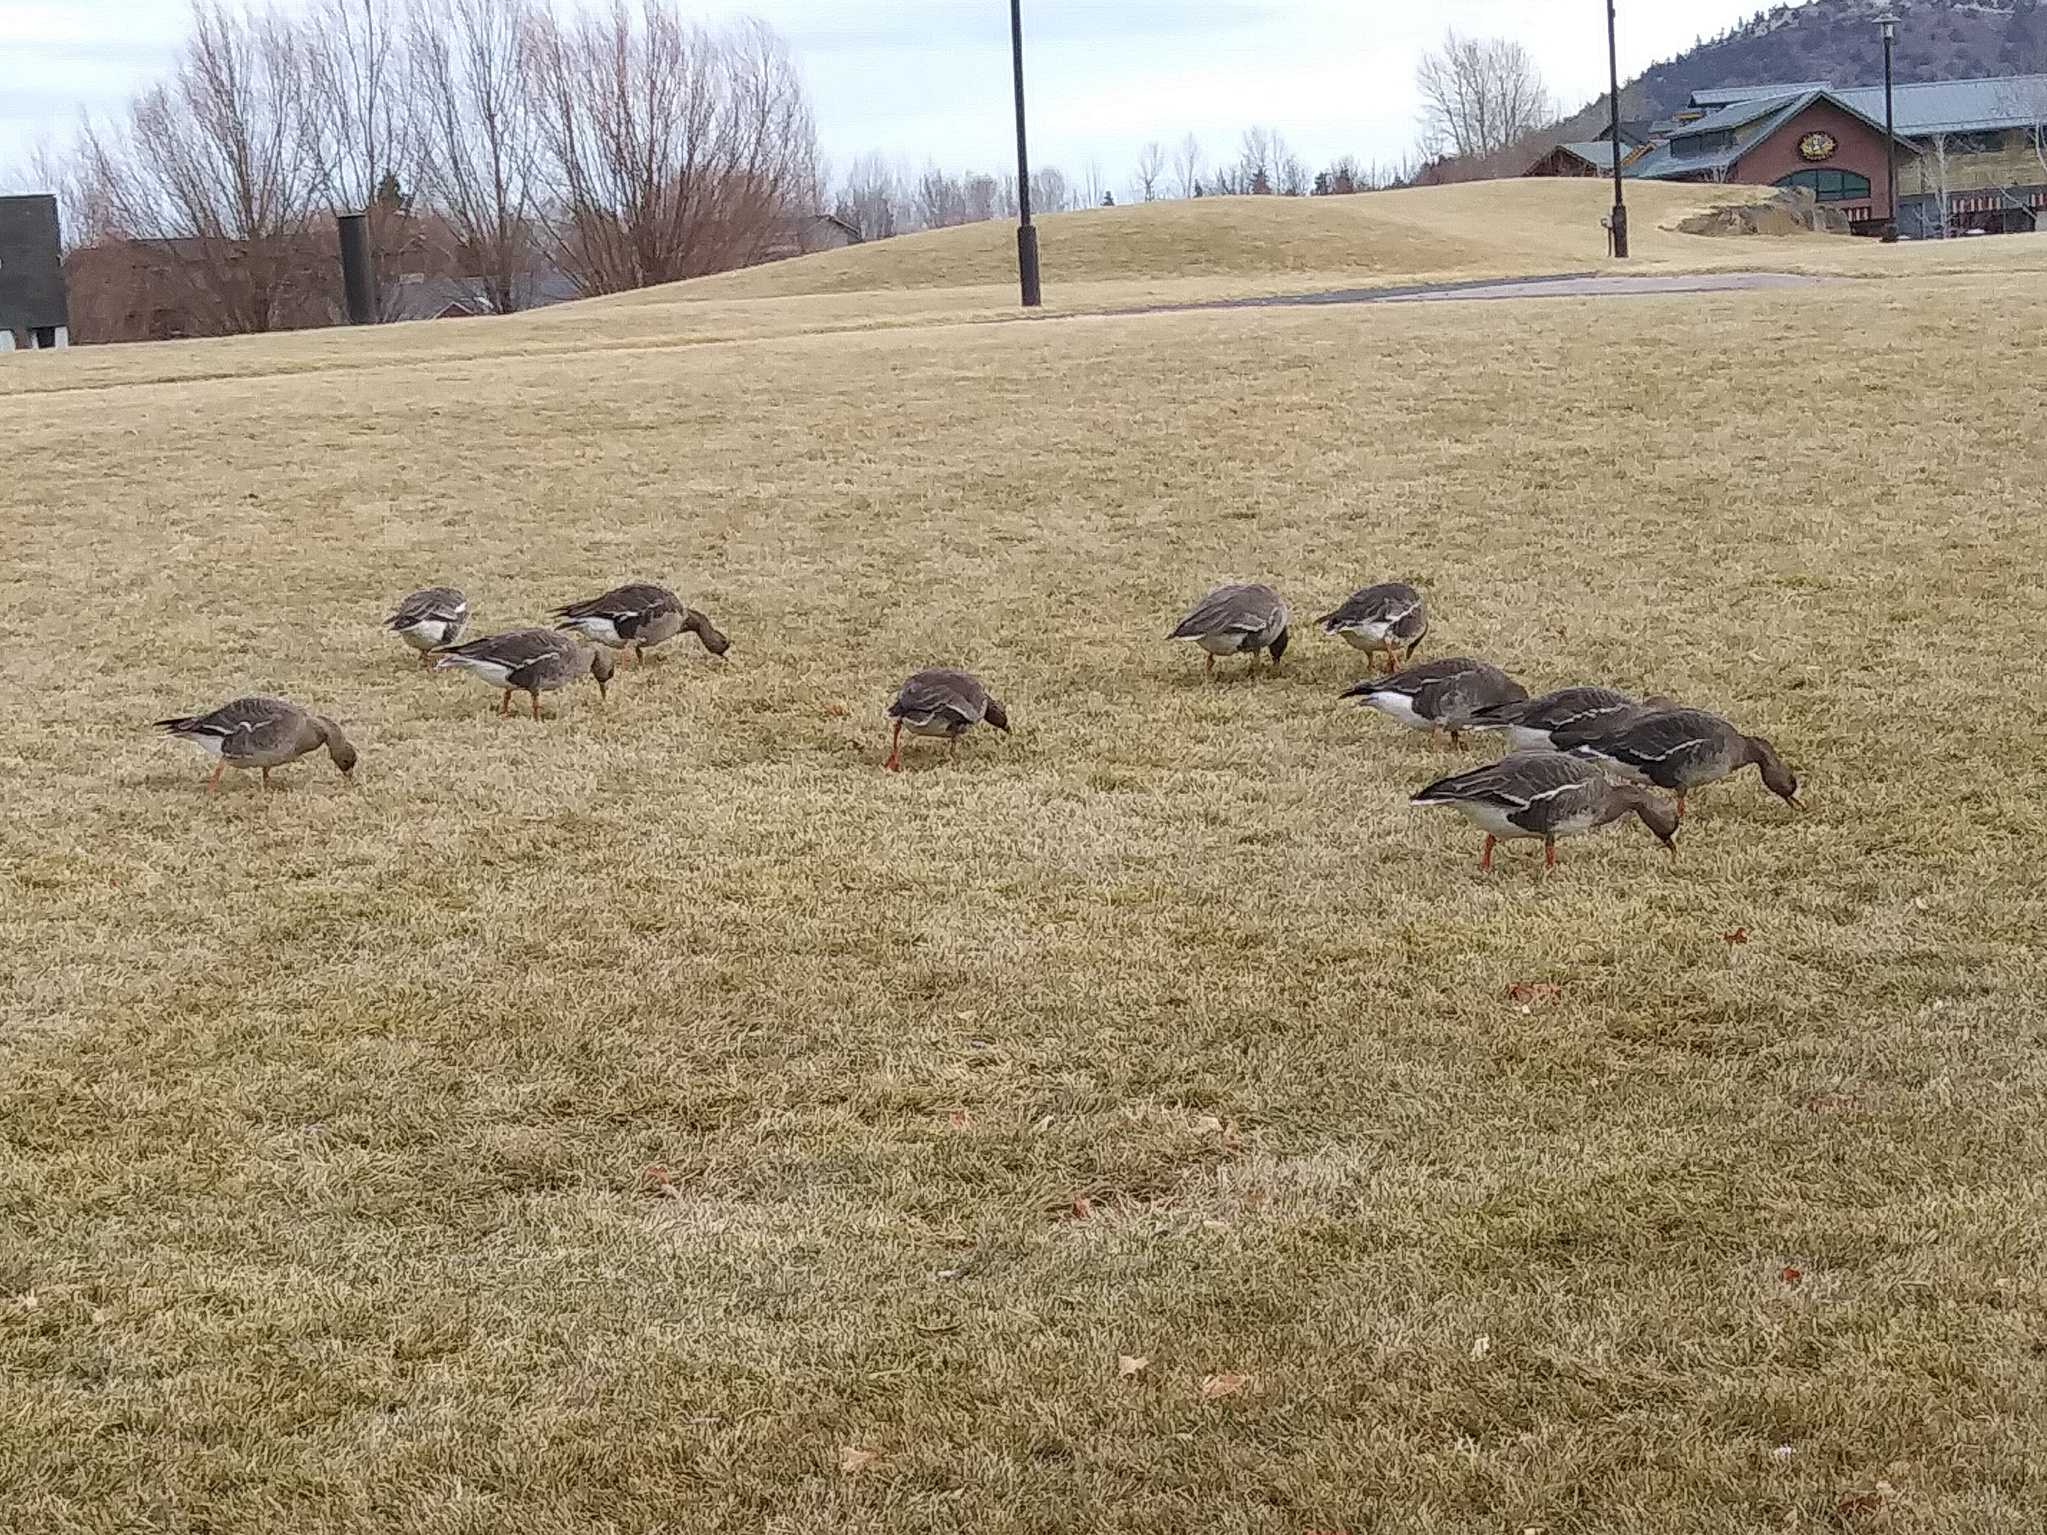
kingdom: Animalia
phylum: Chordata
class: Aves
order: Anseriformes
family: Anatidae
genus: Anser
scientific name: Anser albifrons
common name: Greater white-fronted goose
